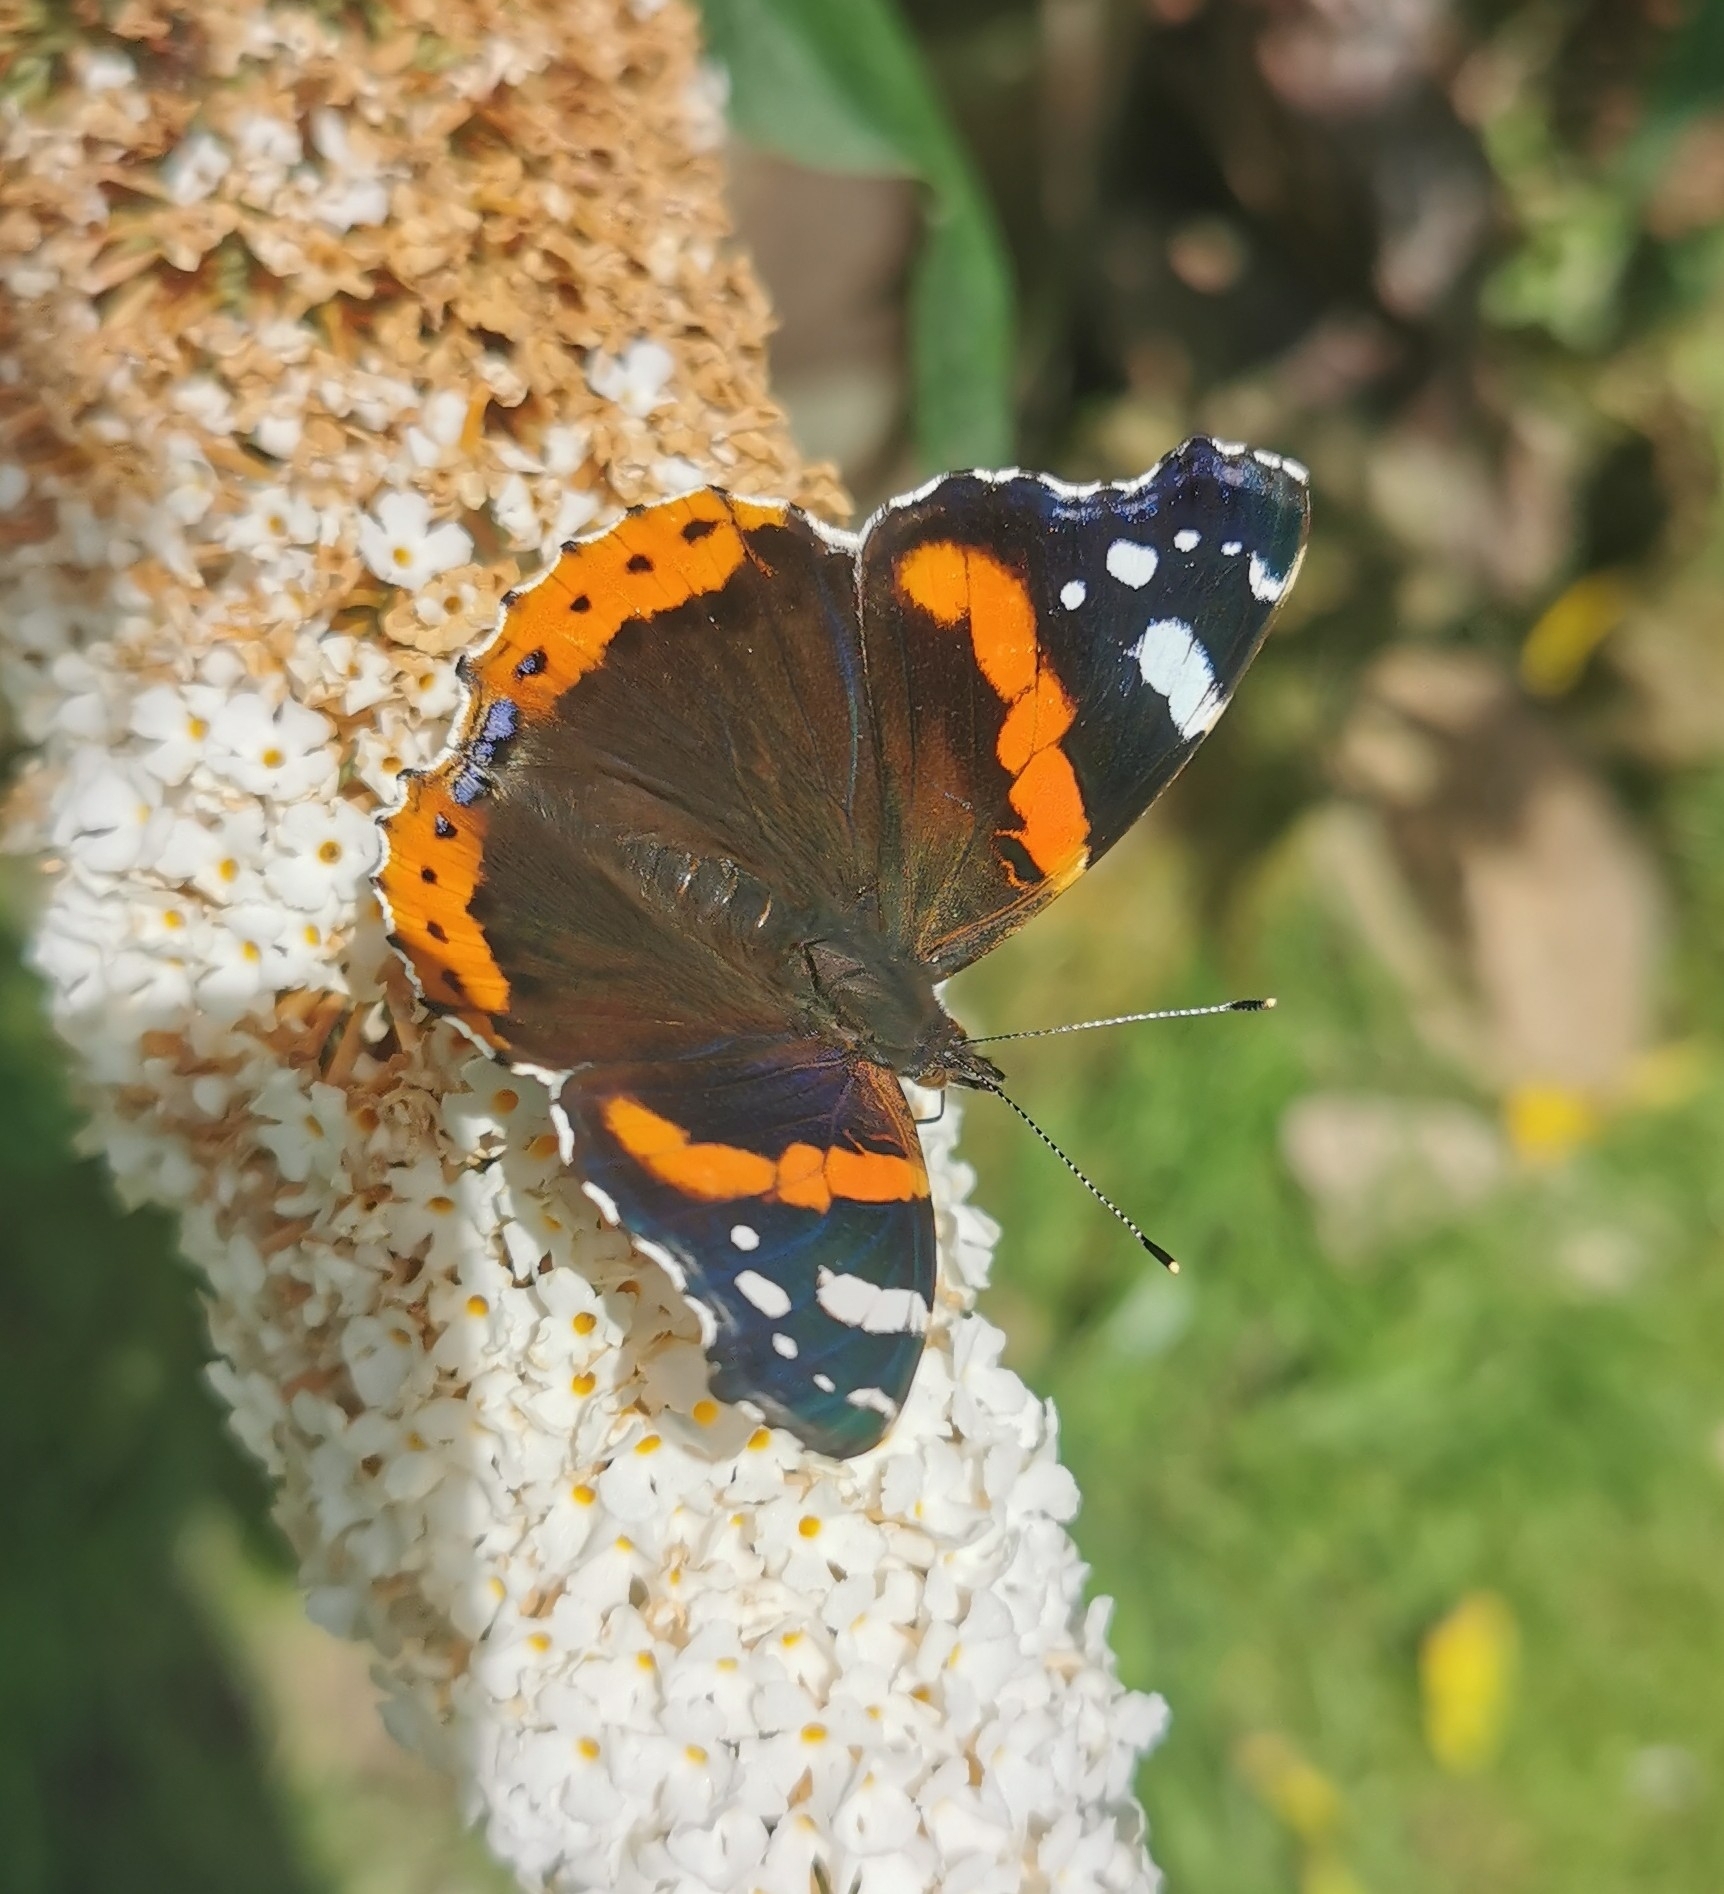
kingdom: Animalia
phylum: Arthropoda
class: Insecta
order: Lepidoptera
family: Nymphalidae
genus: Vanessa
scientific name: Vanessa atalanta
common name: Red admiral
